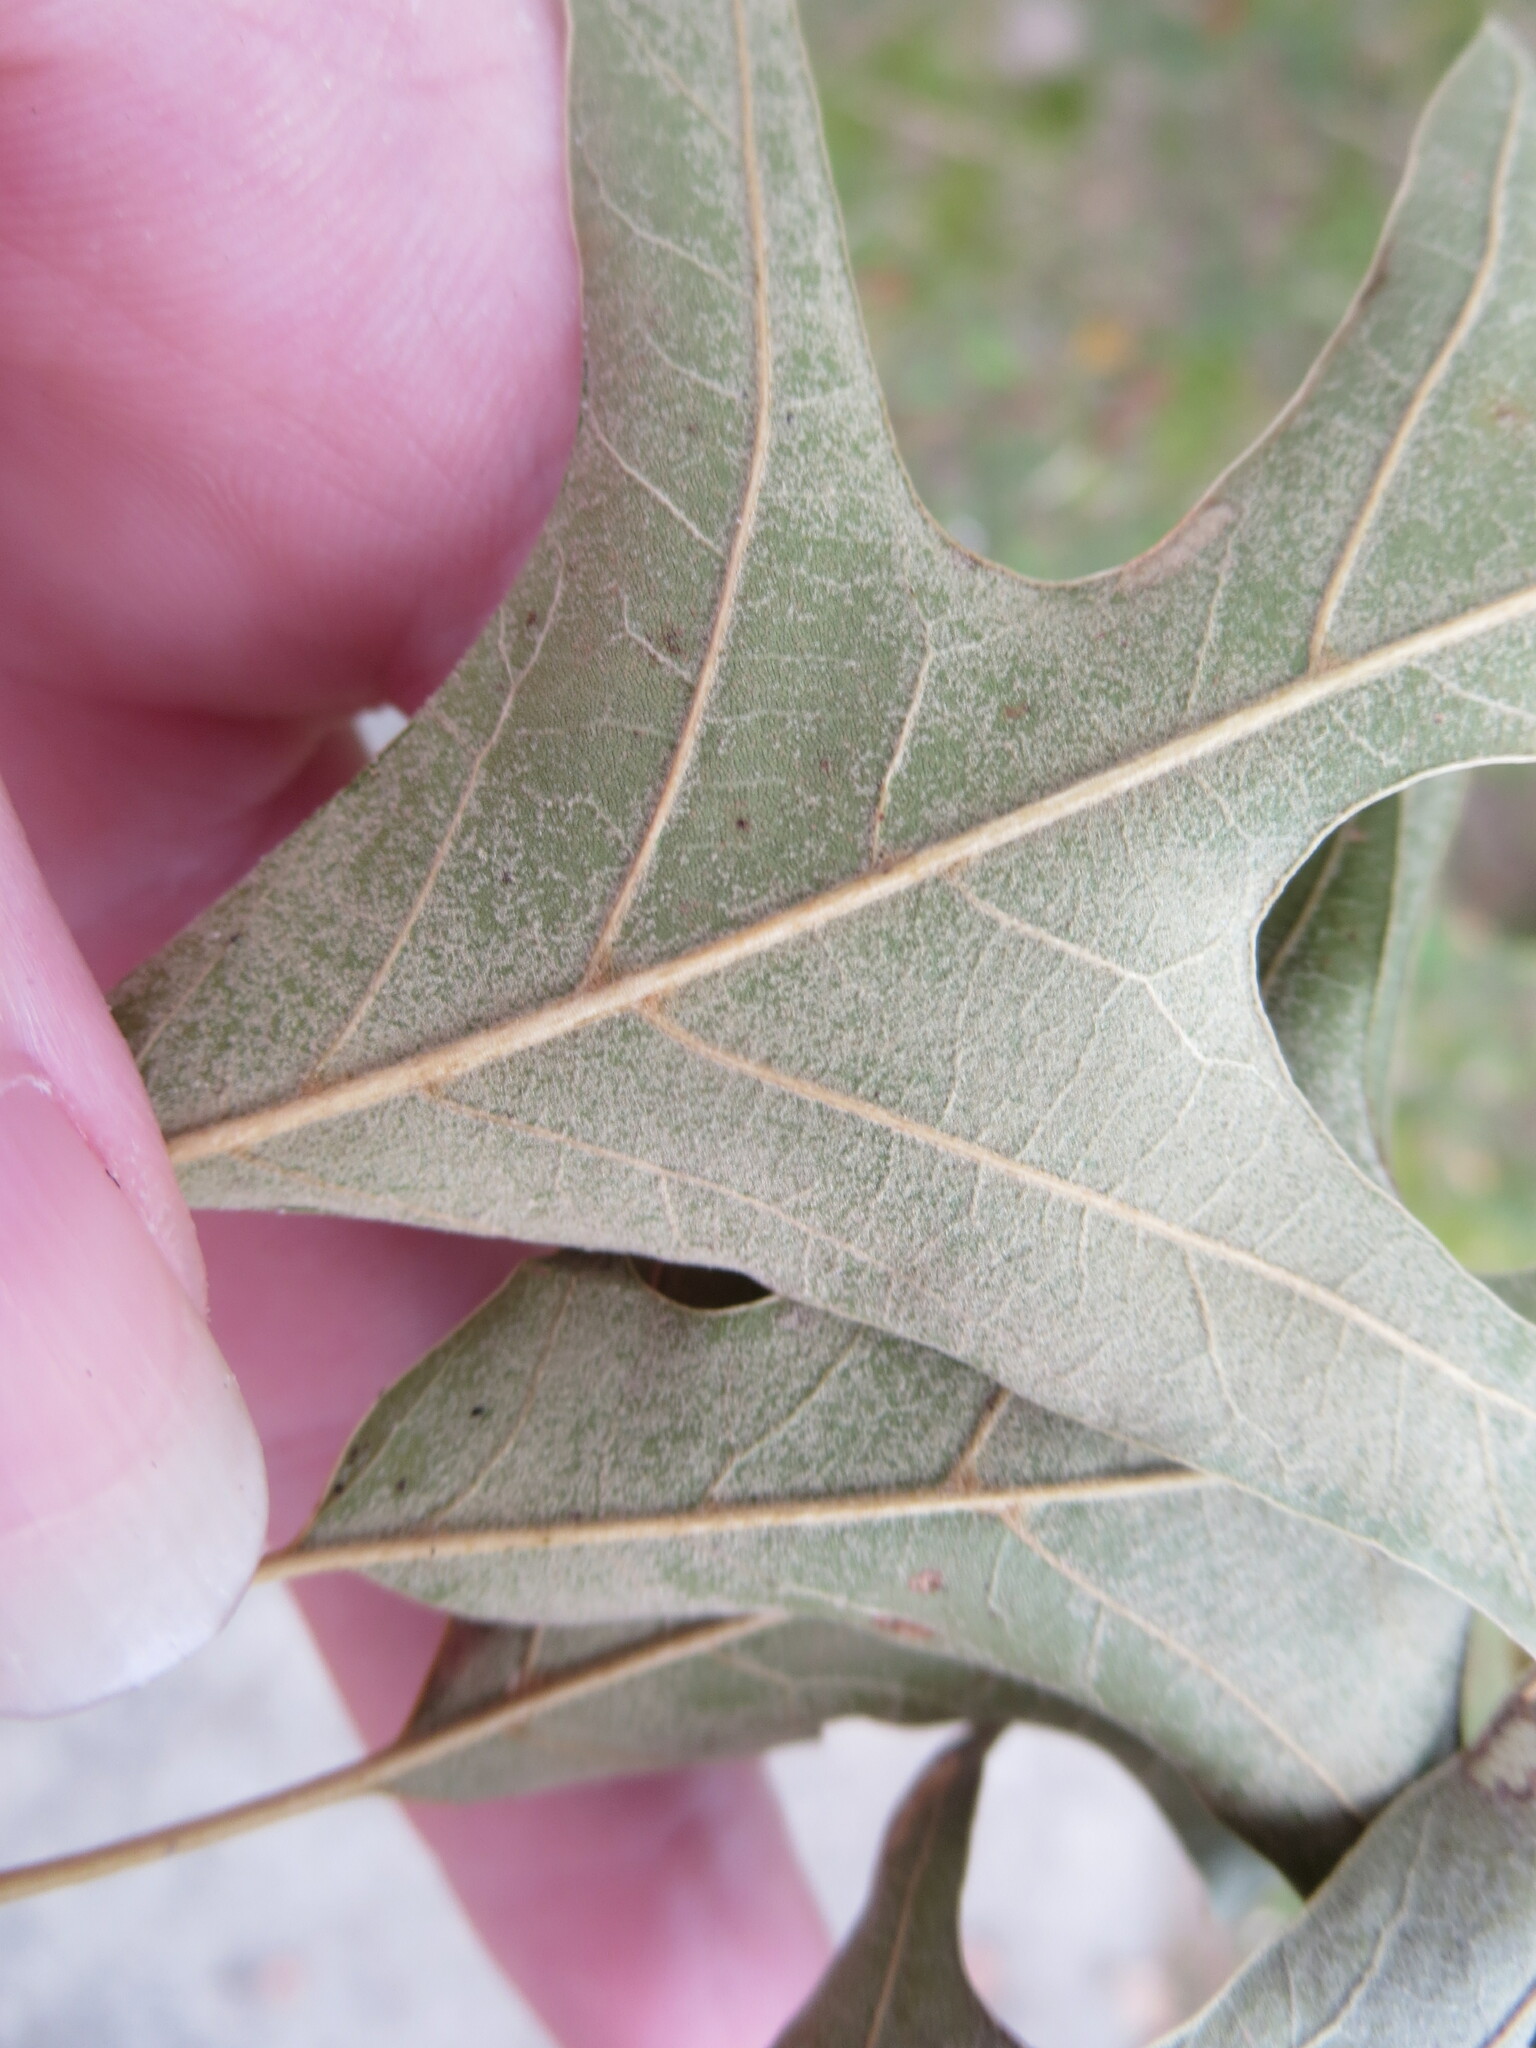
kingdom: Plantae
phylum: Tracheophyta
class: Magnoliopsida
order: Fagales
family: Fagaceae
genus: Quercus
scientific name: Quercus falcata
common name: Southern red oak
